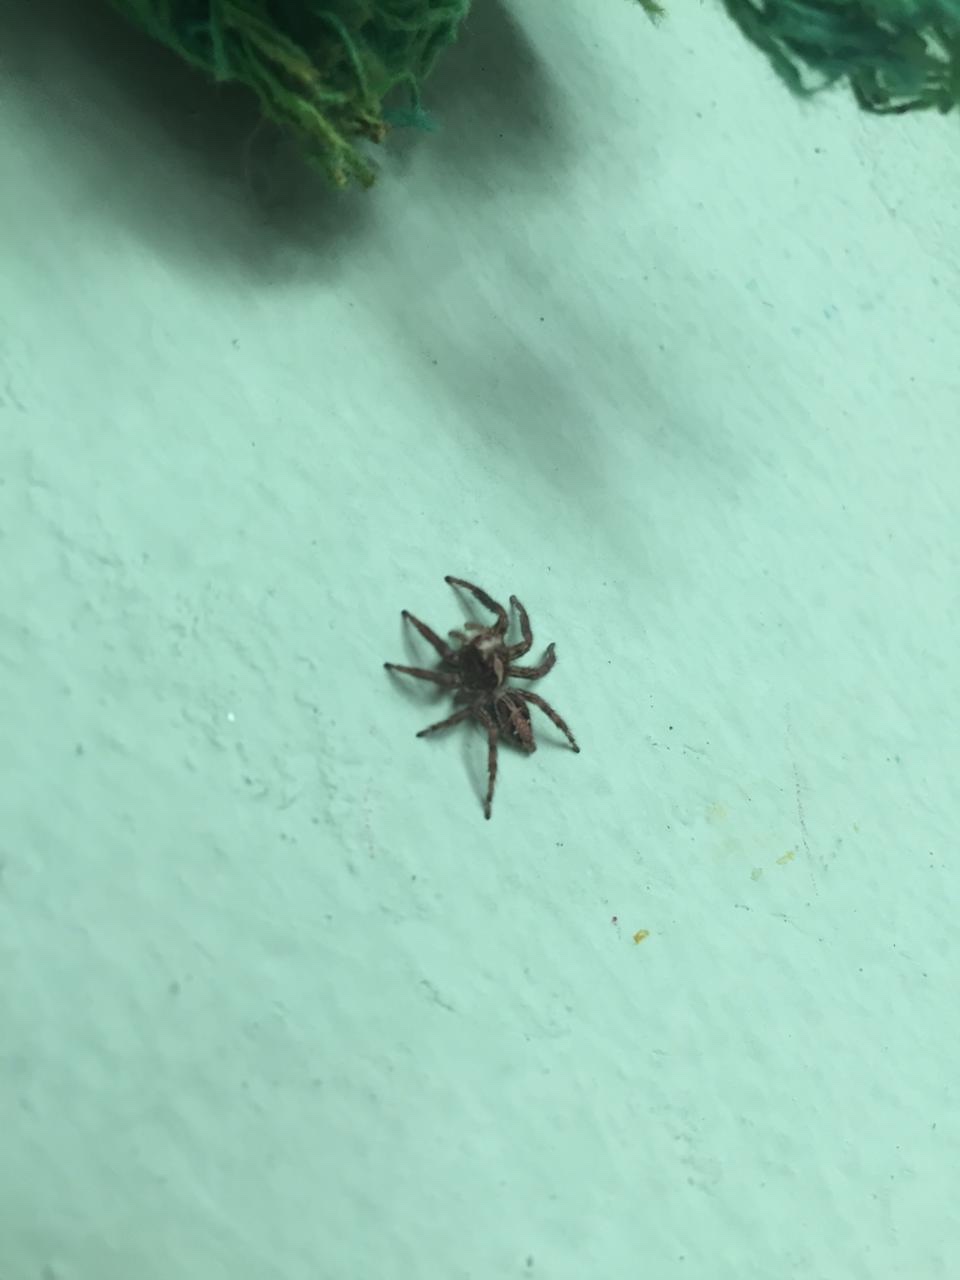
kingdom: Animalia
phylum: Arthropoda
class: Arachnida
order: Araneae
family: Salticidae
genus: Plexippus
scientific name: Plexippus paykulli
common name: Pantropical jumper
